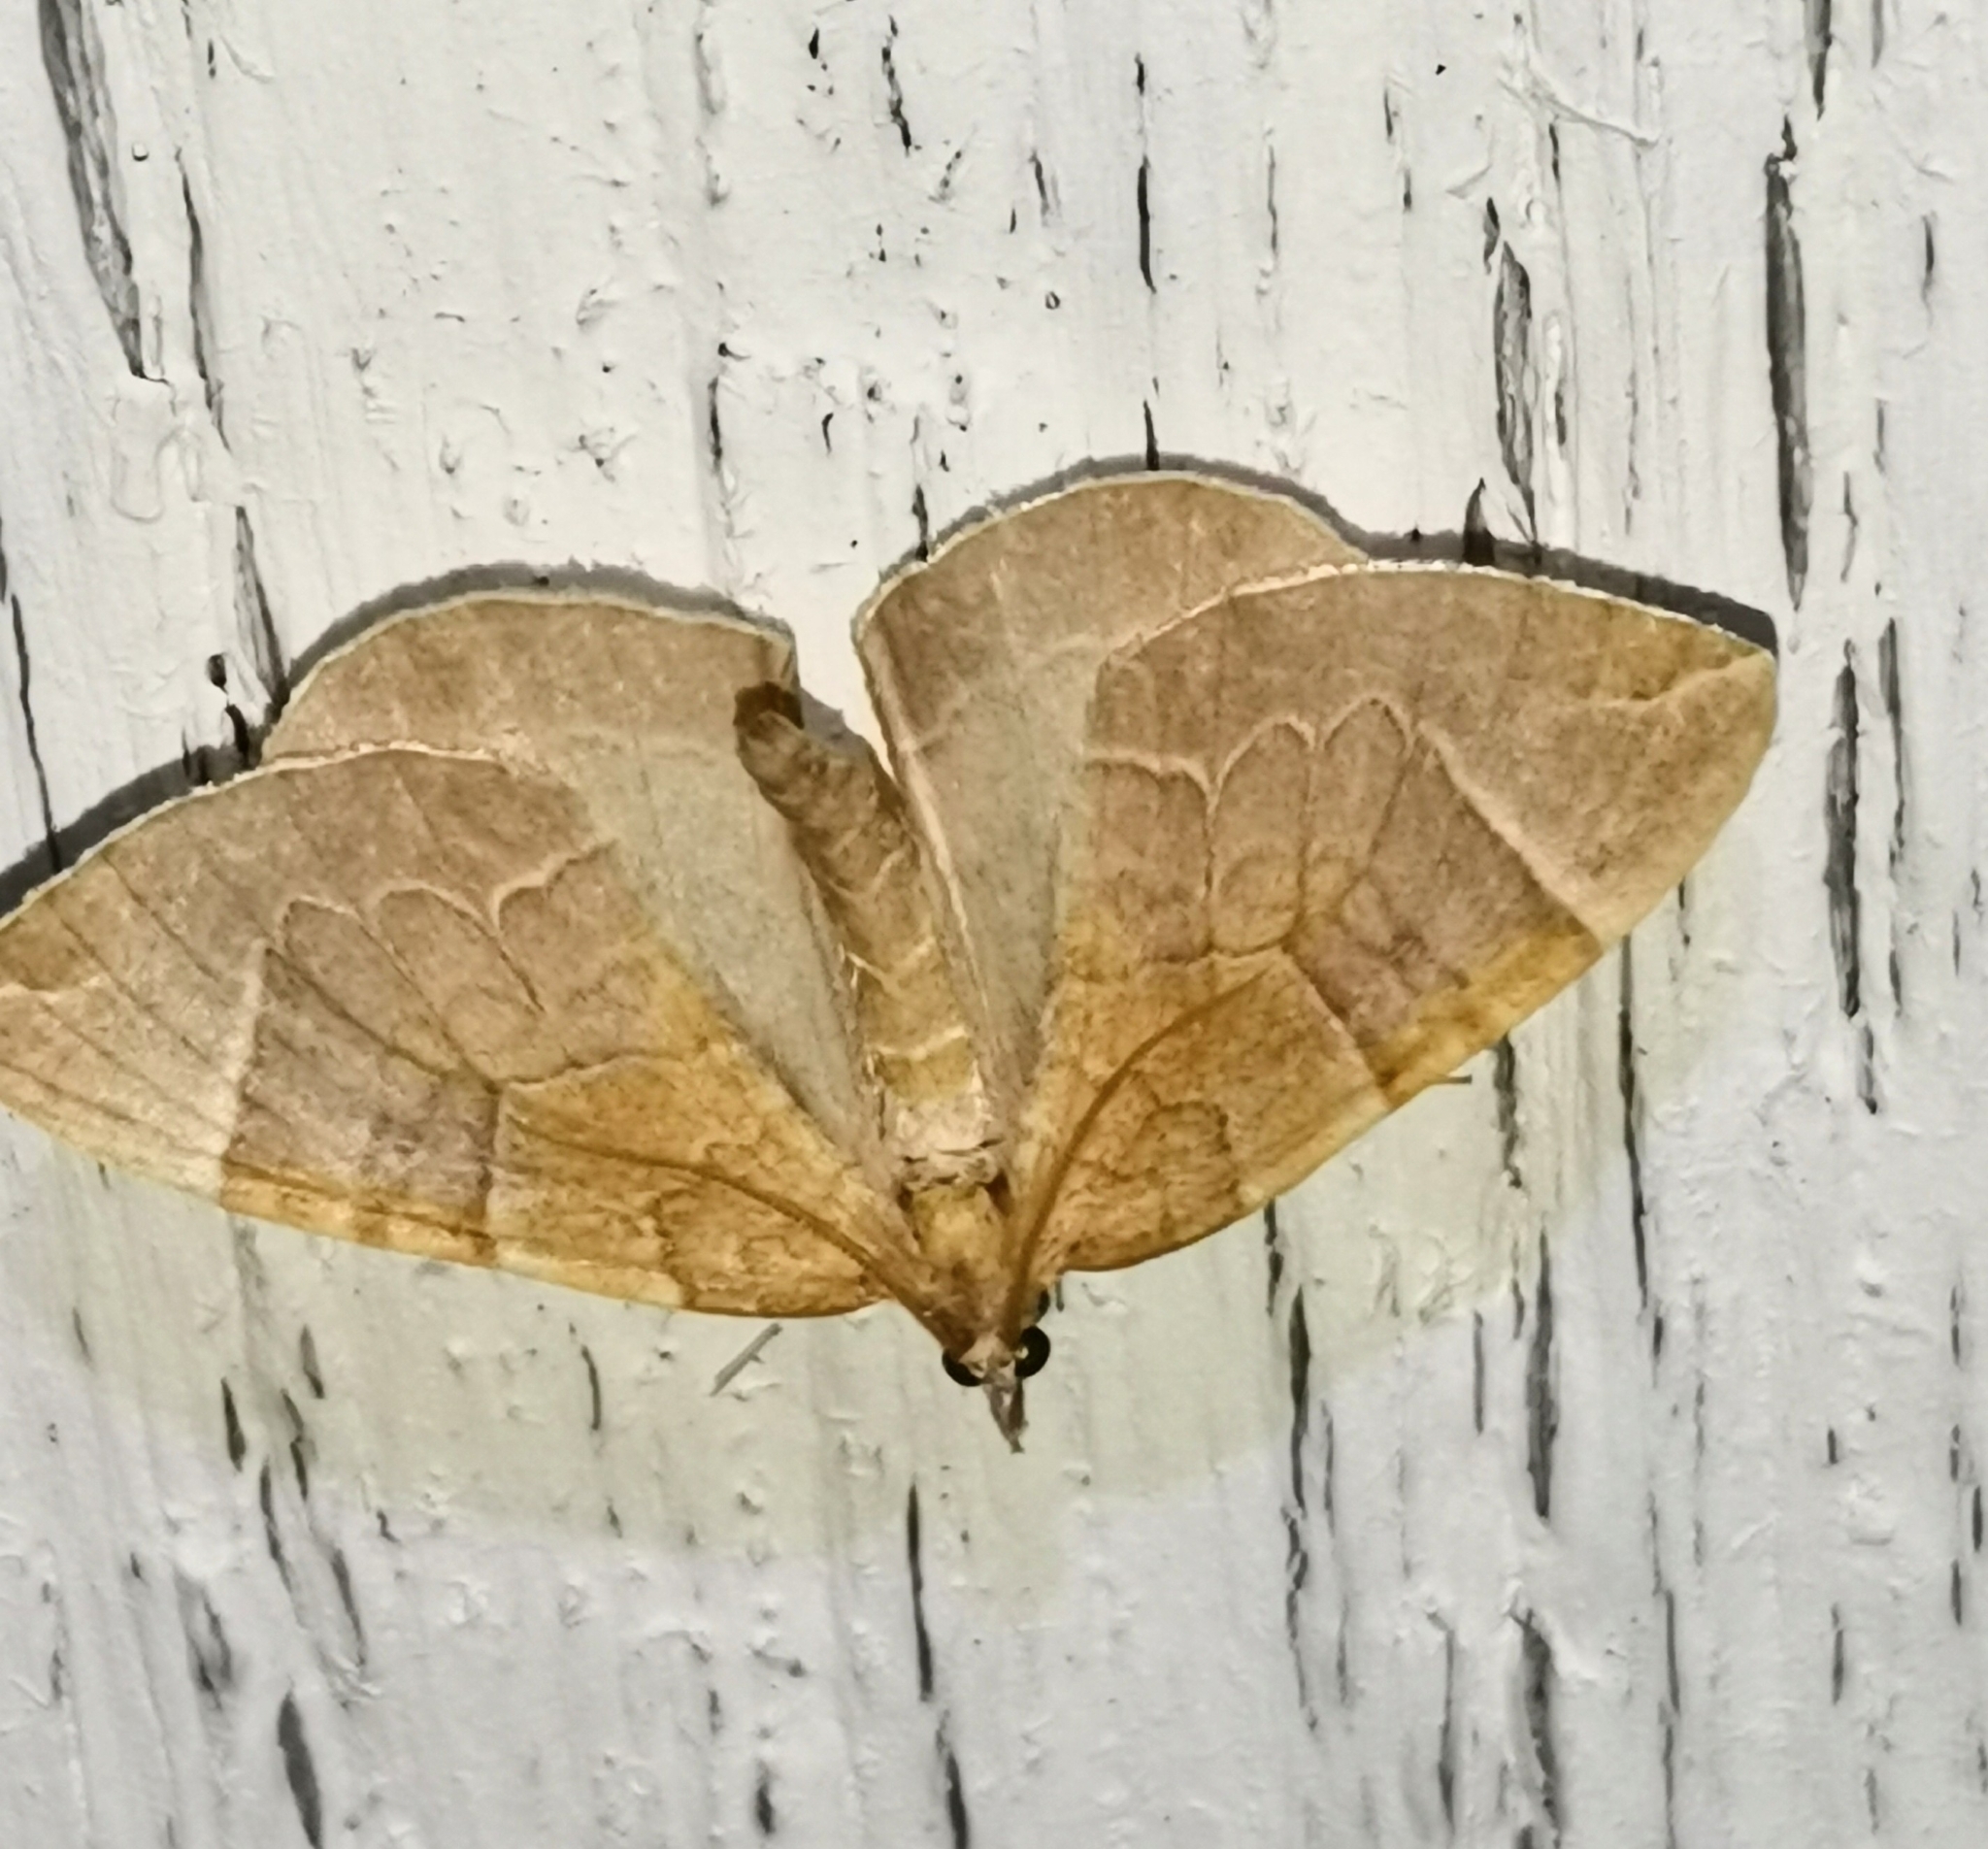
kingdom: Animalia
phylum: Arthropoda
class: Insecta
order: Lepidoptera
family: Geometridae
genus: Eulithis
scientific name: Eulithis testata
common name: Chevron
